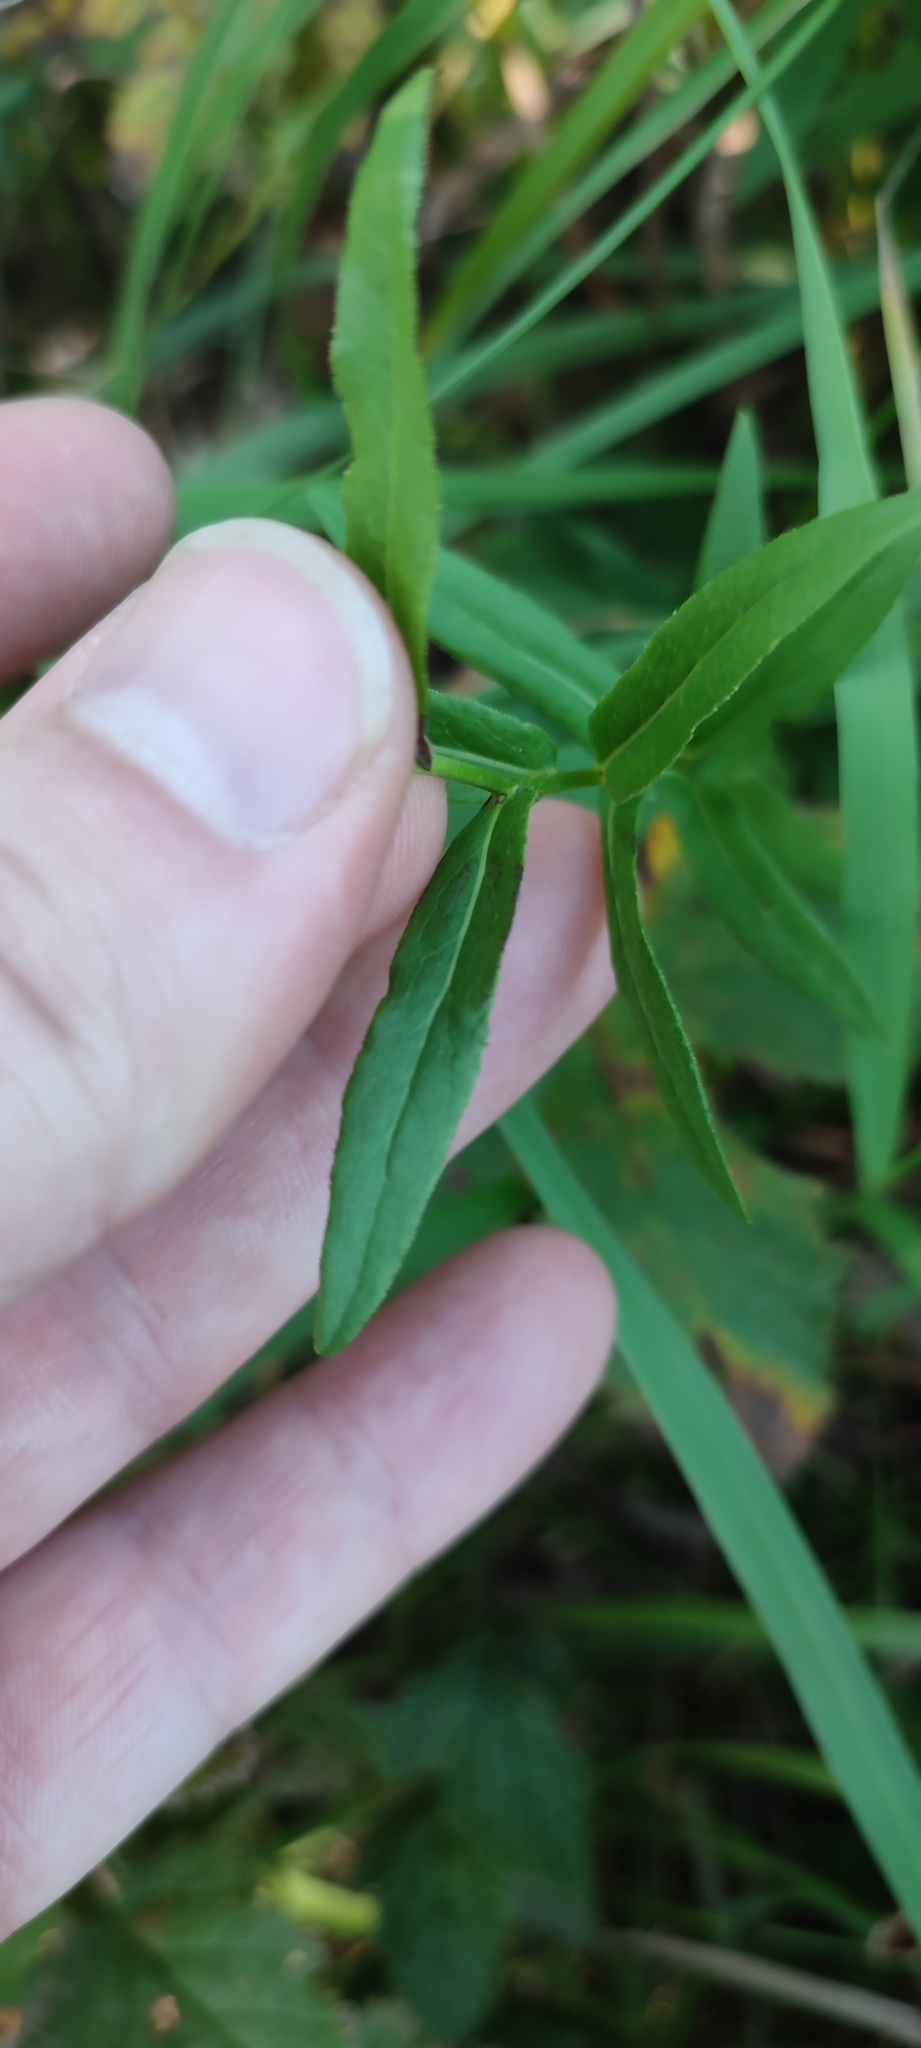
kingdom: Plantae
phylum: Tracheophyta
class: Magnoliopsida
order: Asterales
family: Asteraceae
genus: Pentanema
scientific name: Pentanema salicinum
